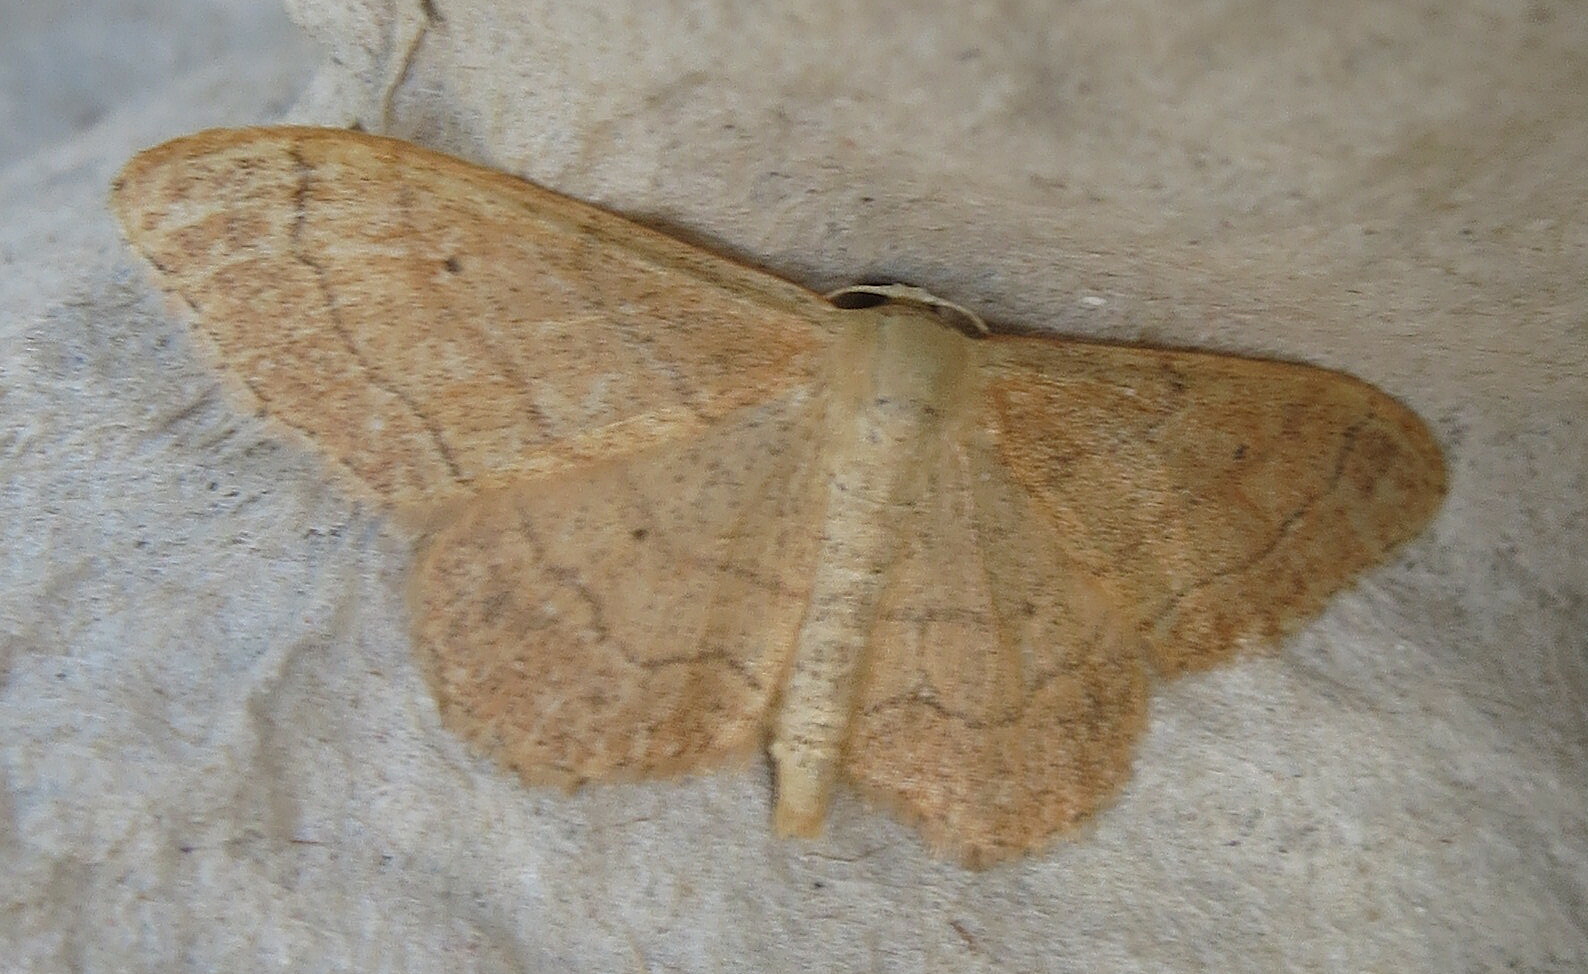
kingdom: Animalia
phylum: Arthropoda
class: Insecta
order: Lepidoptera
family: Geometridae
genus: Idaea
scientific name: Idaea aversata
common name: Riband wave
